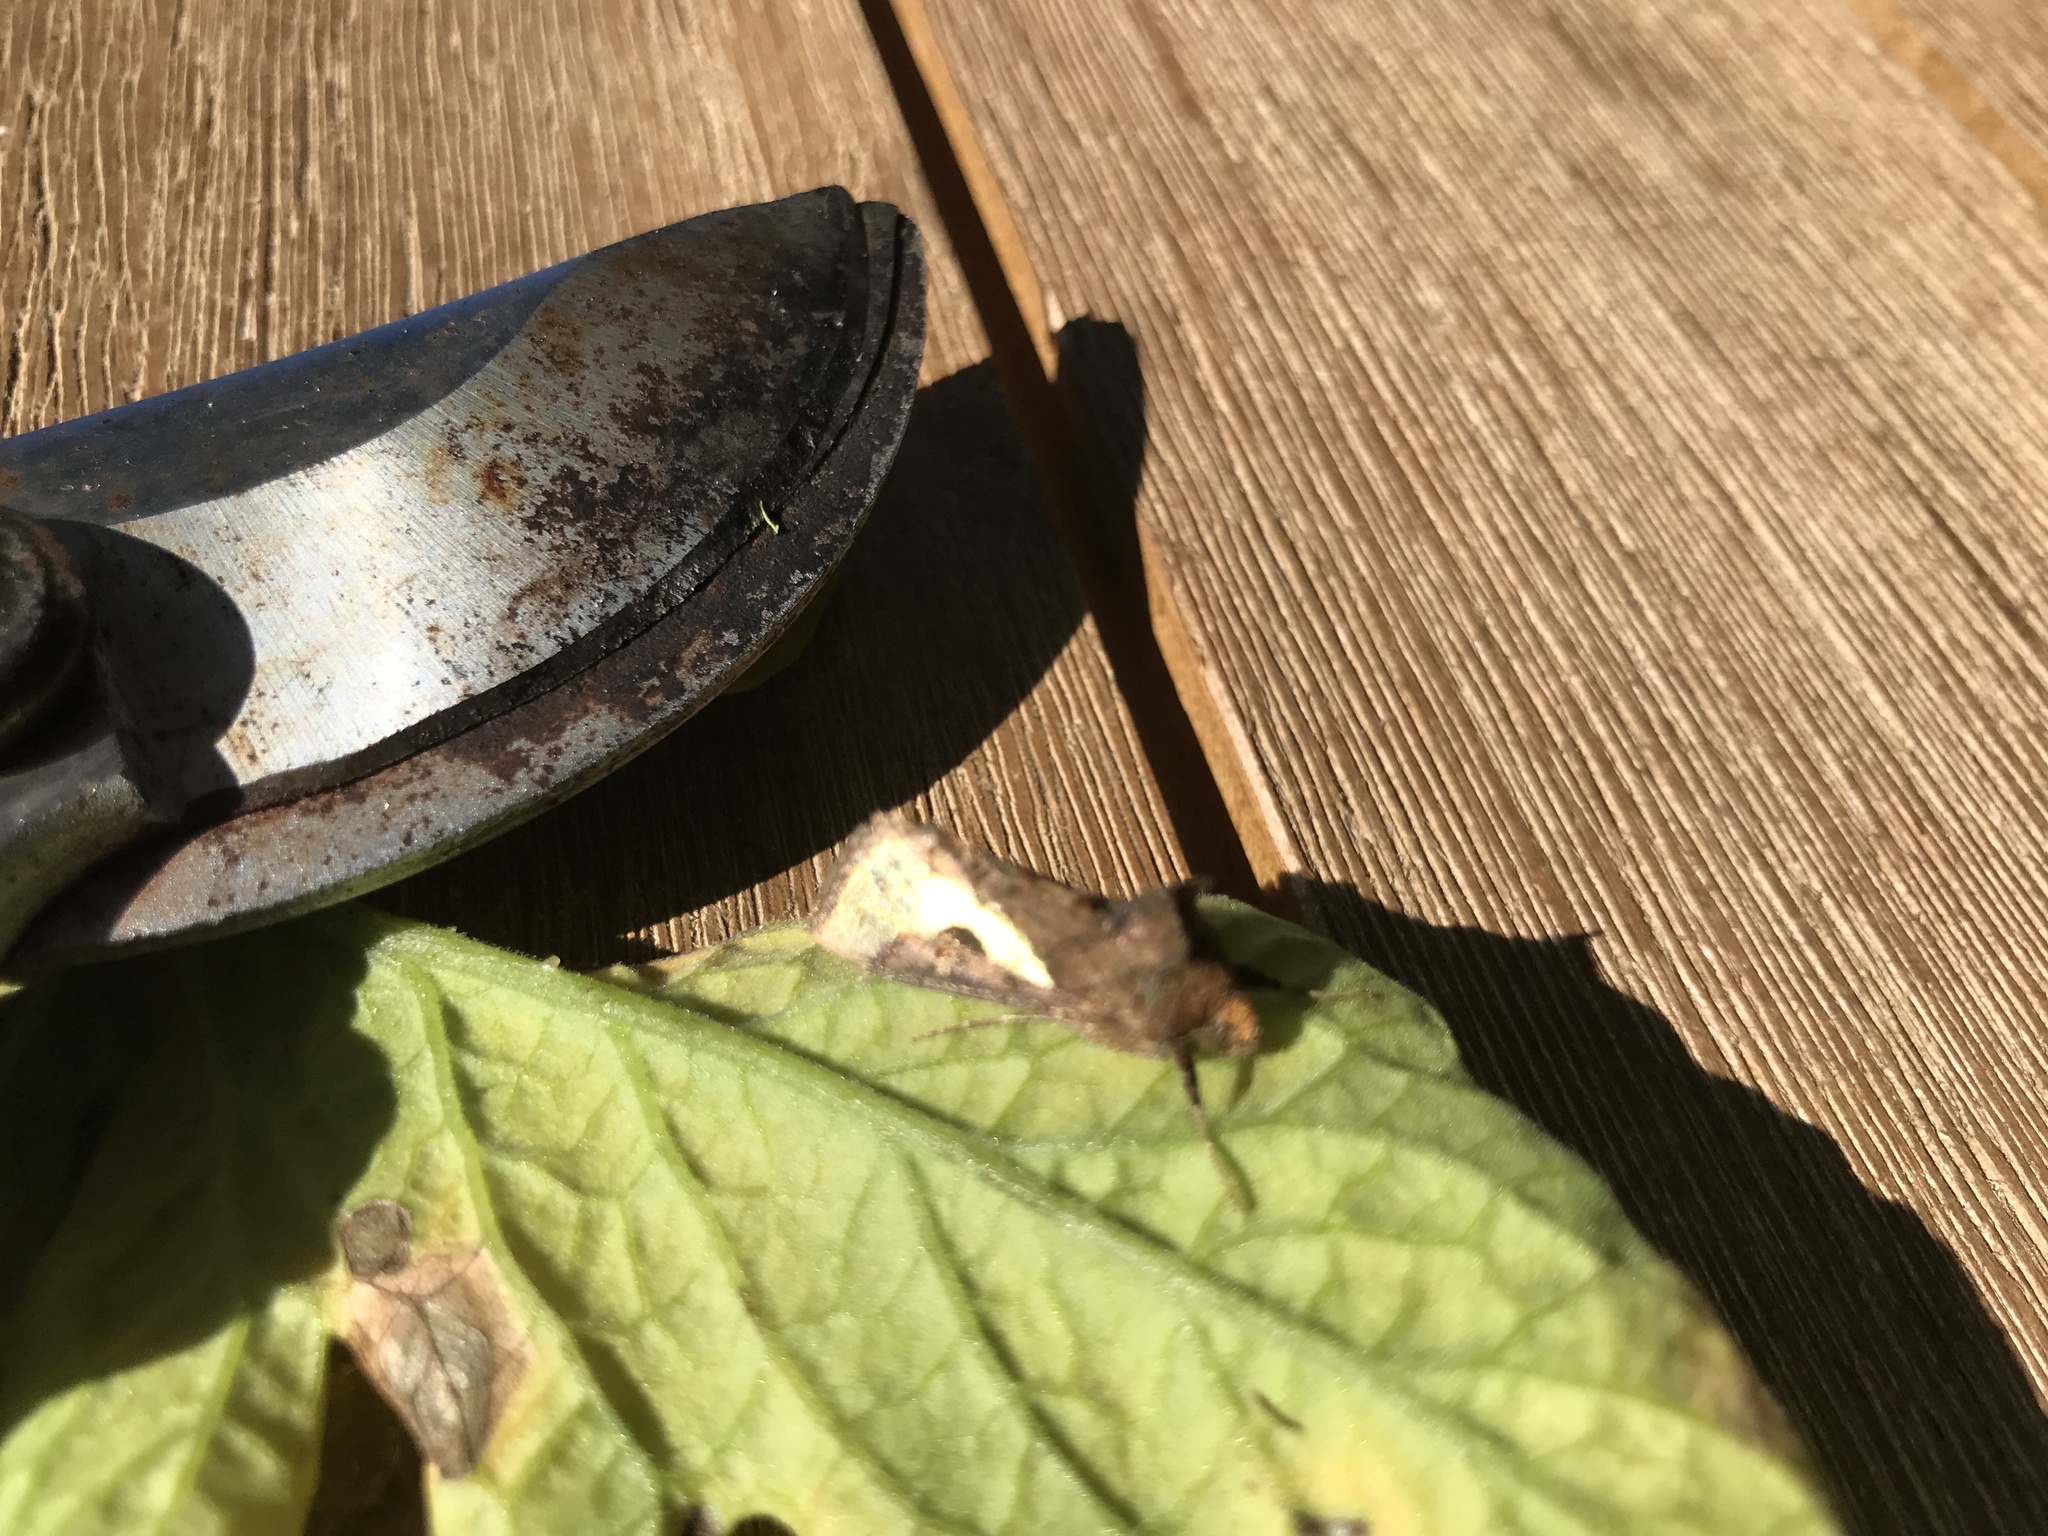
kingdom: Animalia
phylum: Arthropoda
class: Insecta
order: Lepidoptera
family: Noctuidae
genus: Thysanoplusia
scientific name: Thysanoplusia orichalcea
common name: Slender burnished brass, golden plusia
